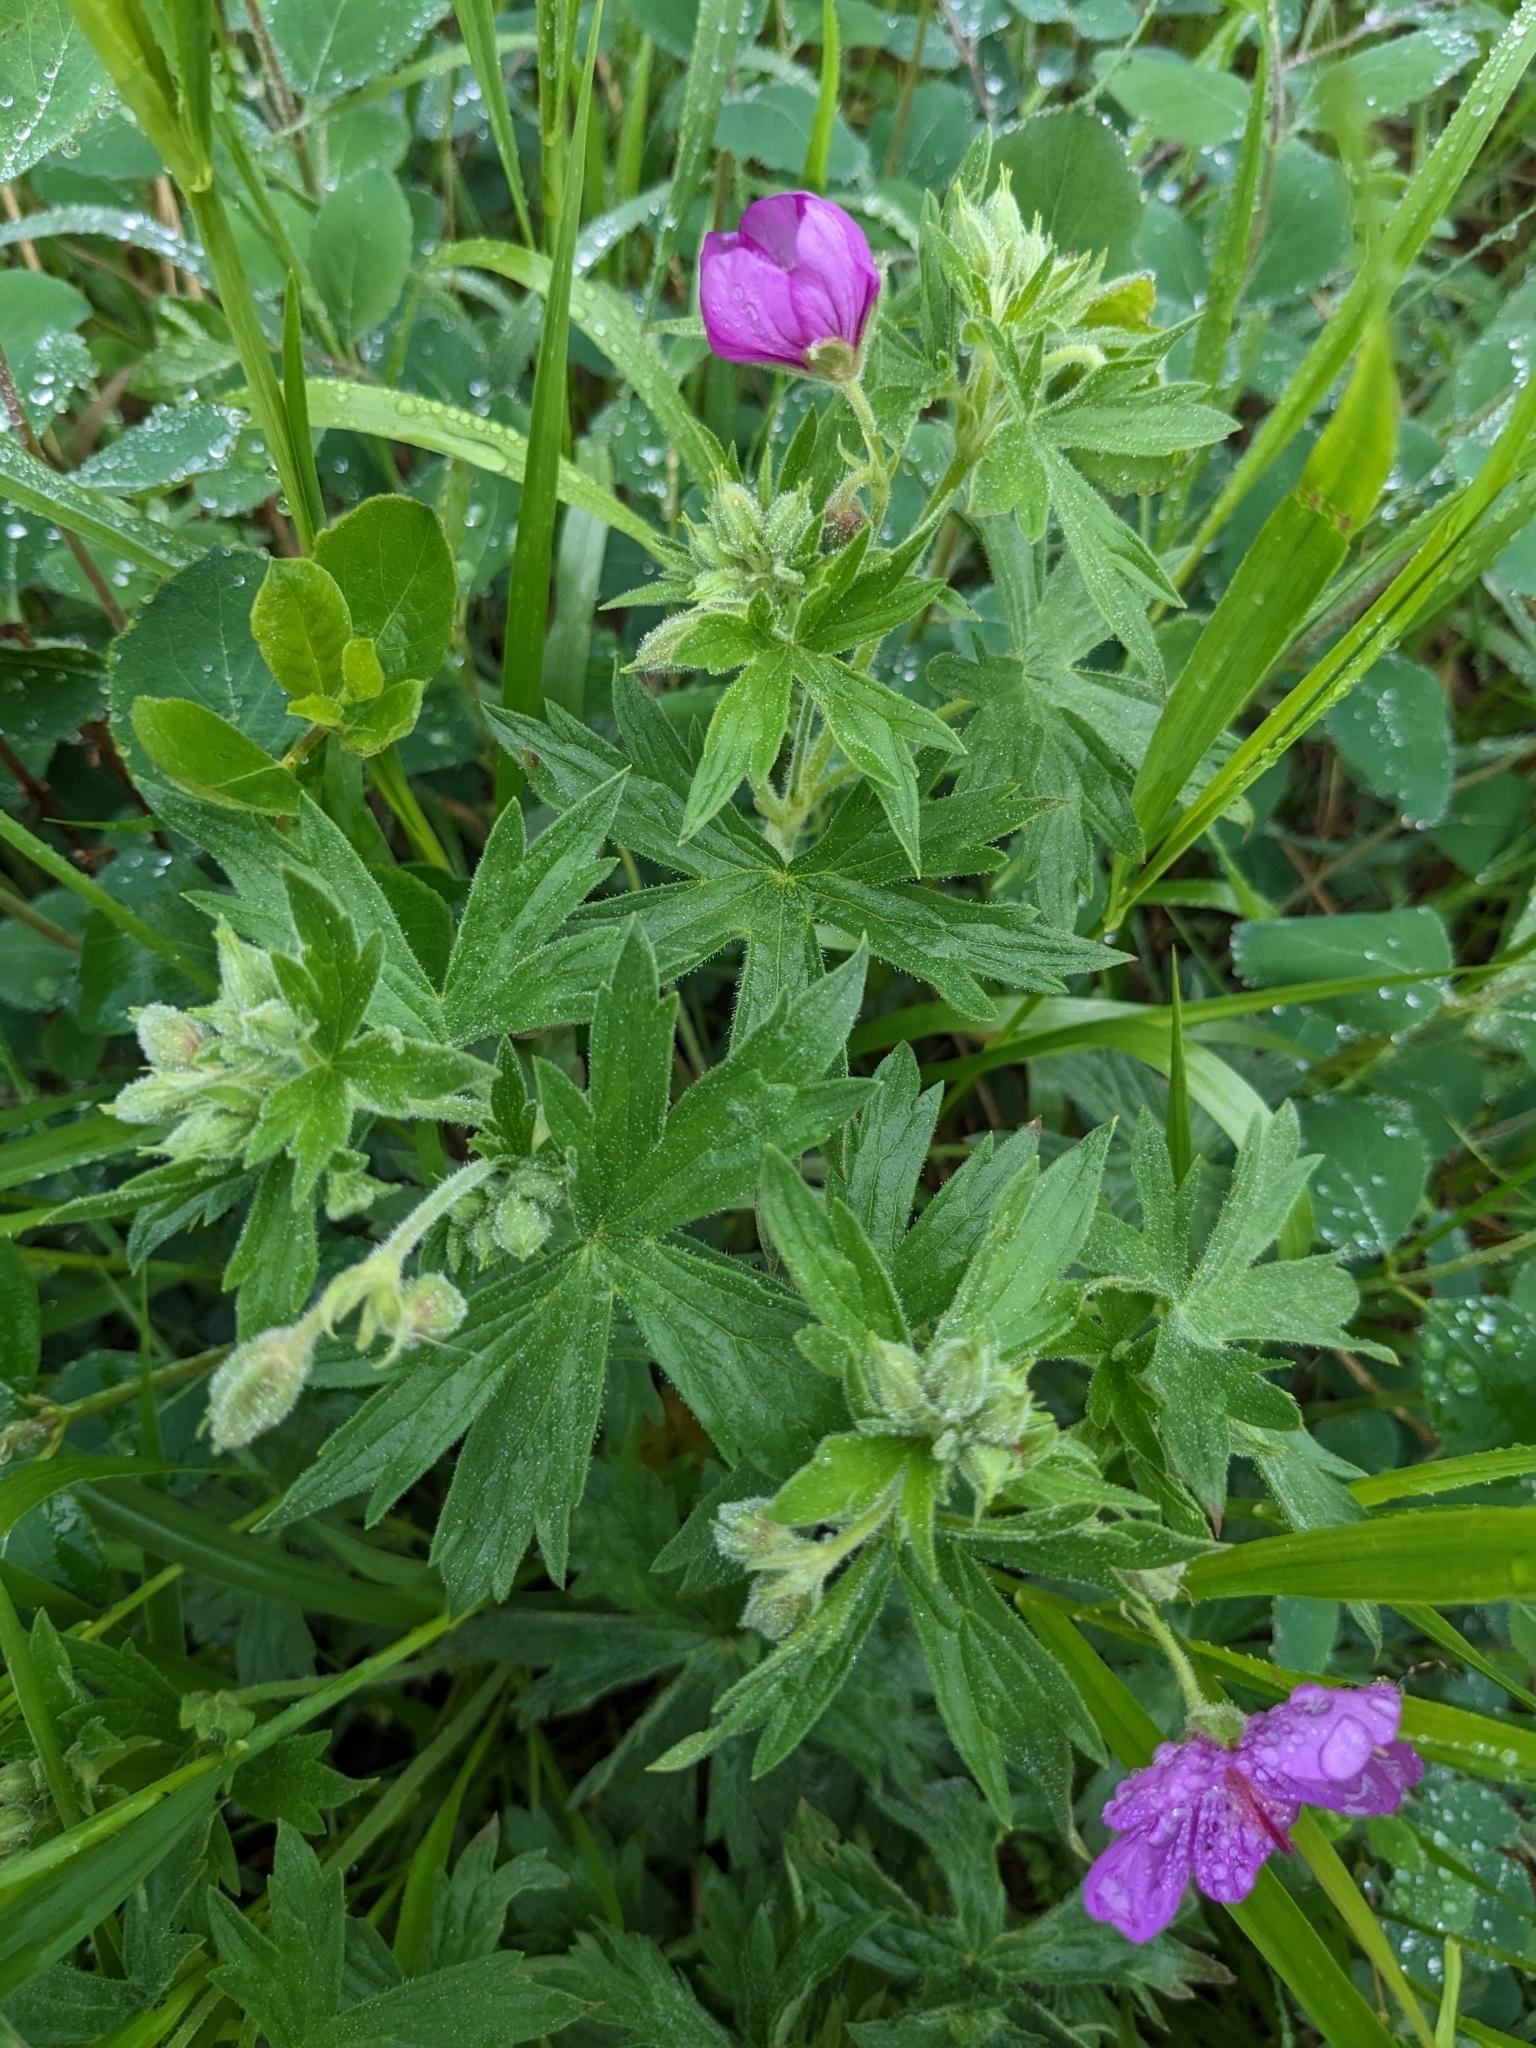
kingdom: Plantae
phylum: Tracheophyta
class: Magnoliopsida
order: Geraniales
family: Geraniaceae
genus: Geranium
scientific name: Geranium viscosissimum
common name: Purple geranium
